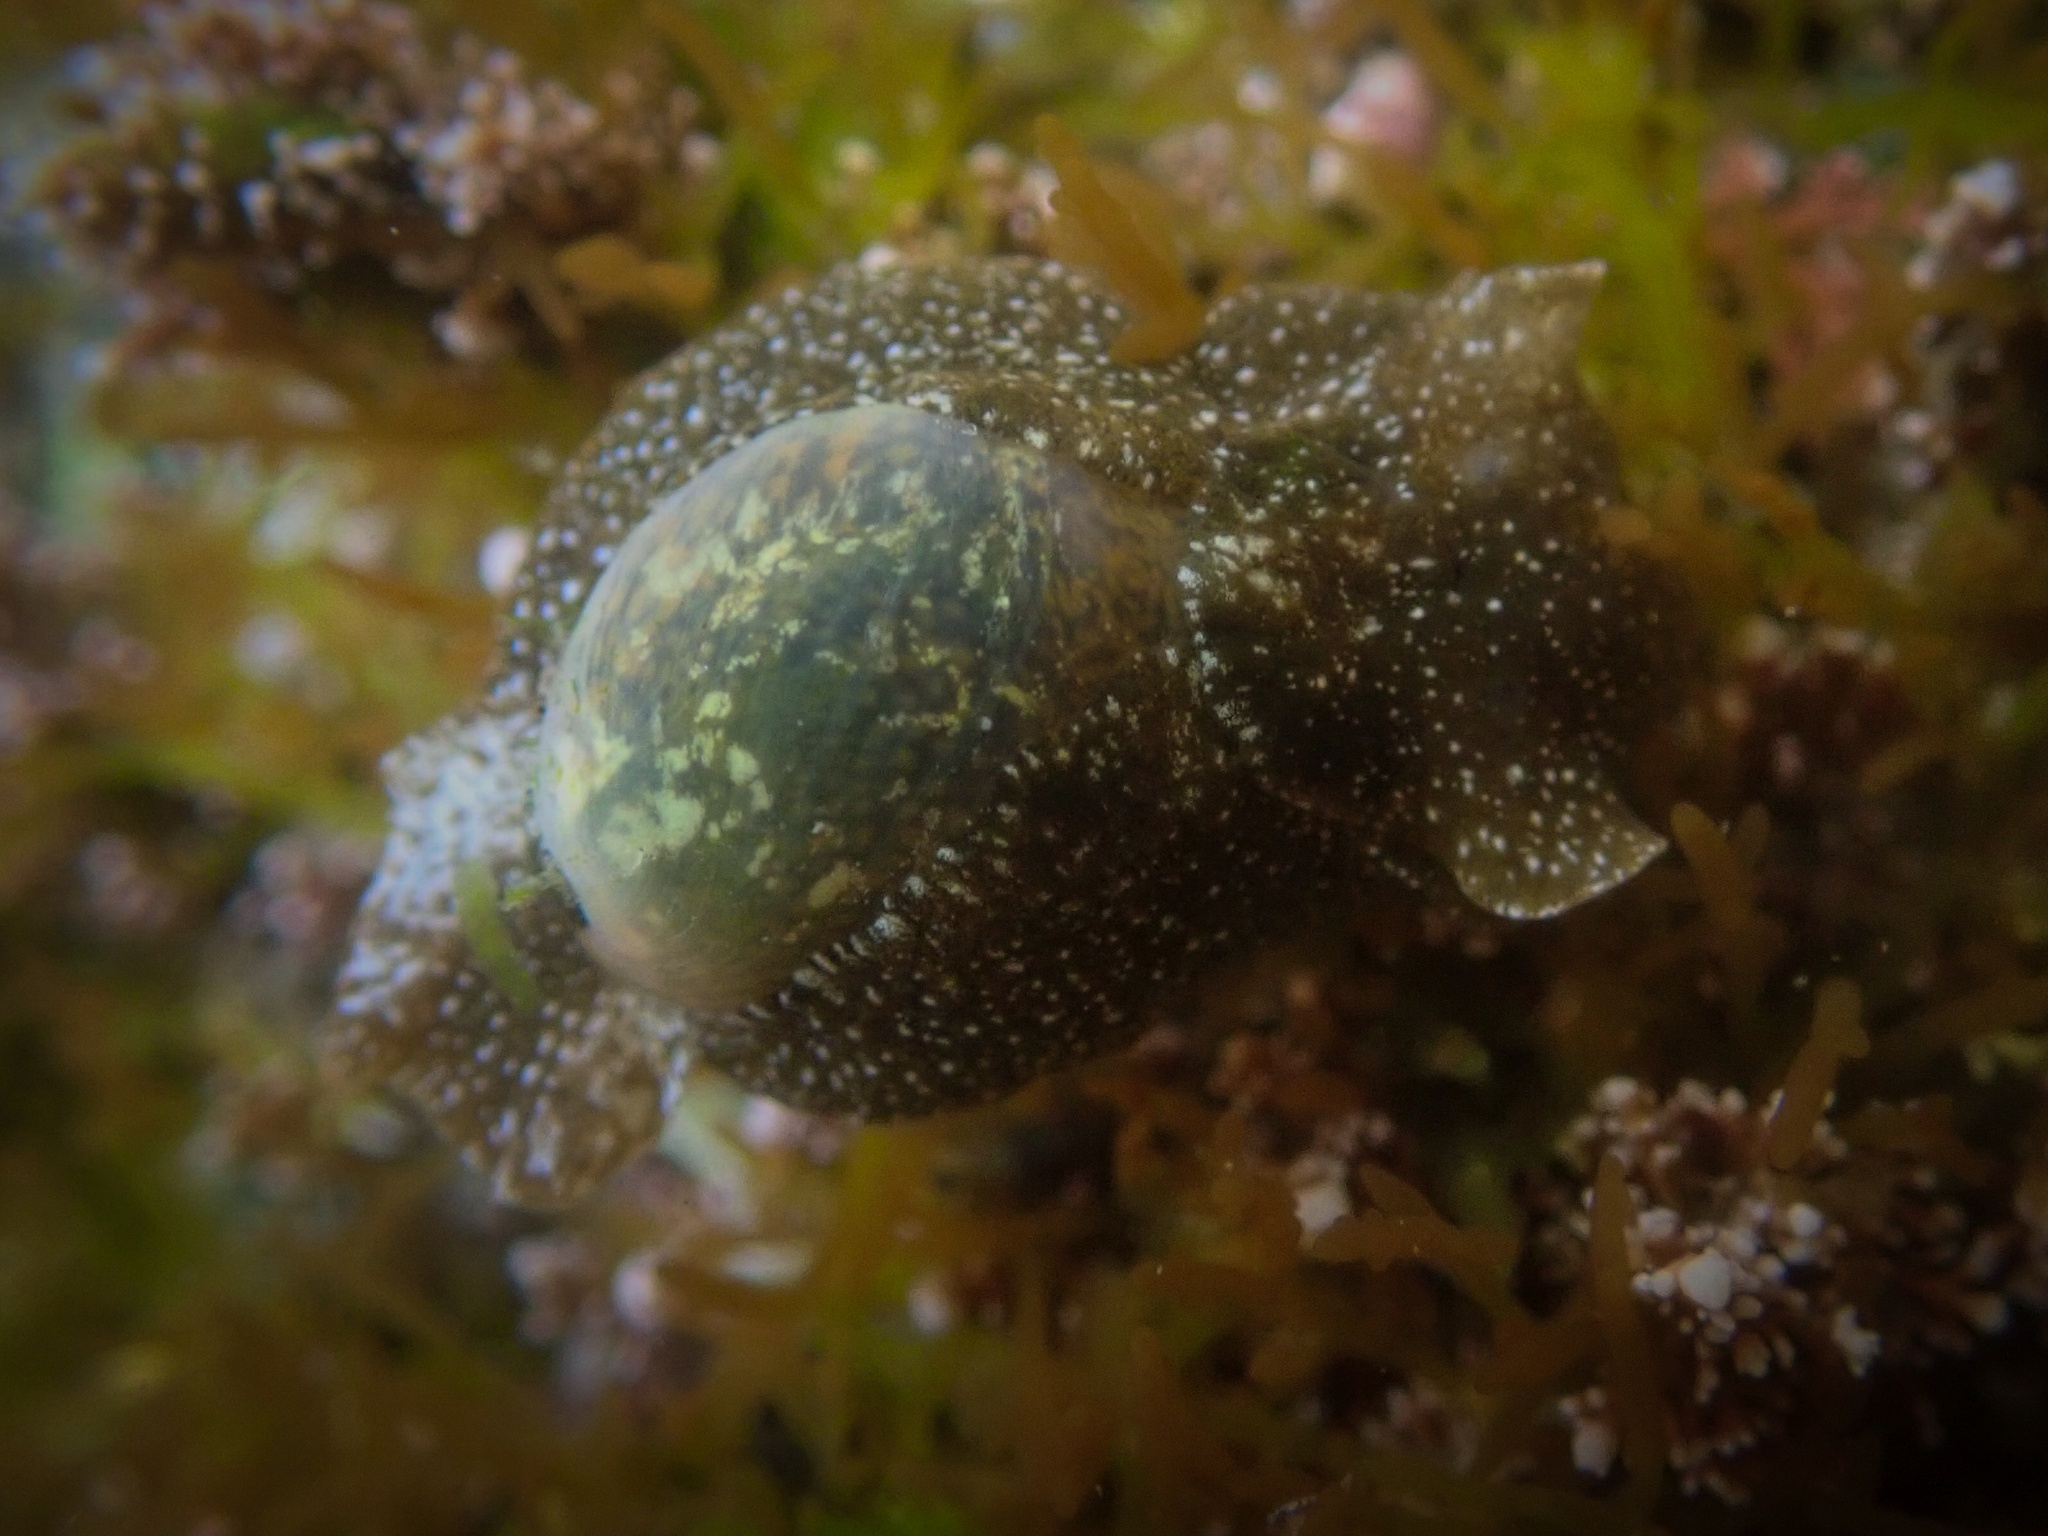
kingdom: Animalia
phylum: Mollusca
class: Gastropoda
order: Cephalaspidea
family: Haminoeidae
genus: Haminoea
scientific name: Haminoea virescens
